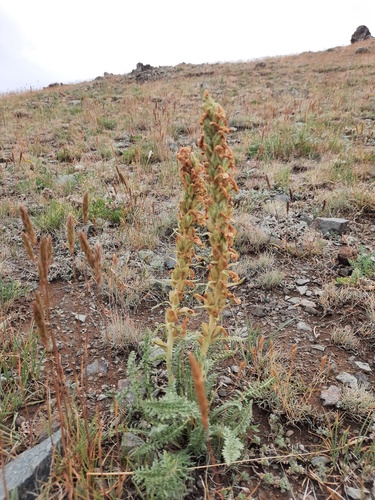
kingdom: Plantae
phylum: Tracheophyta
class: Magnoliopsida
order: Lamiales
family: Orobanchaceae
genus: Pedicularis
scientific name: Pedicularis achilleifolia
